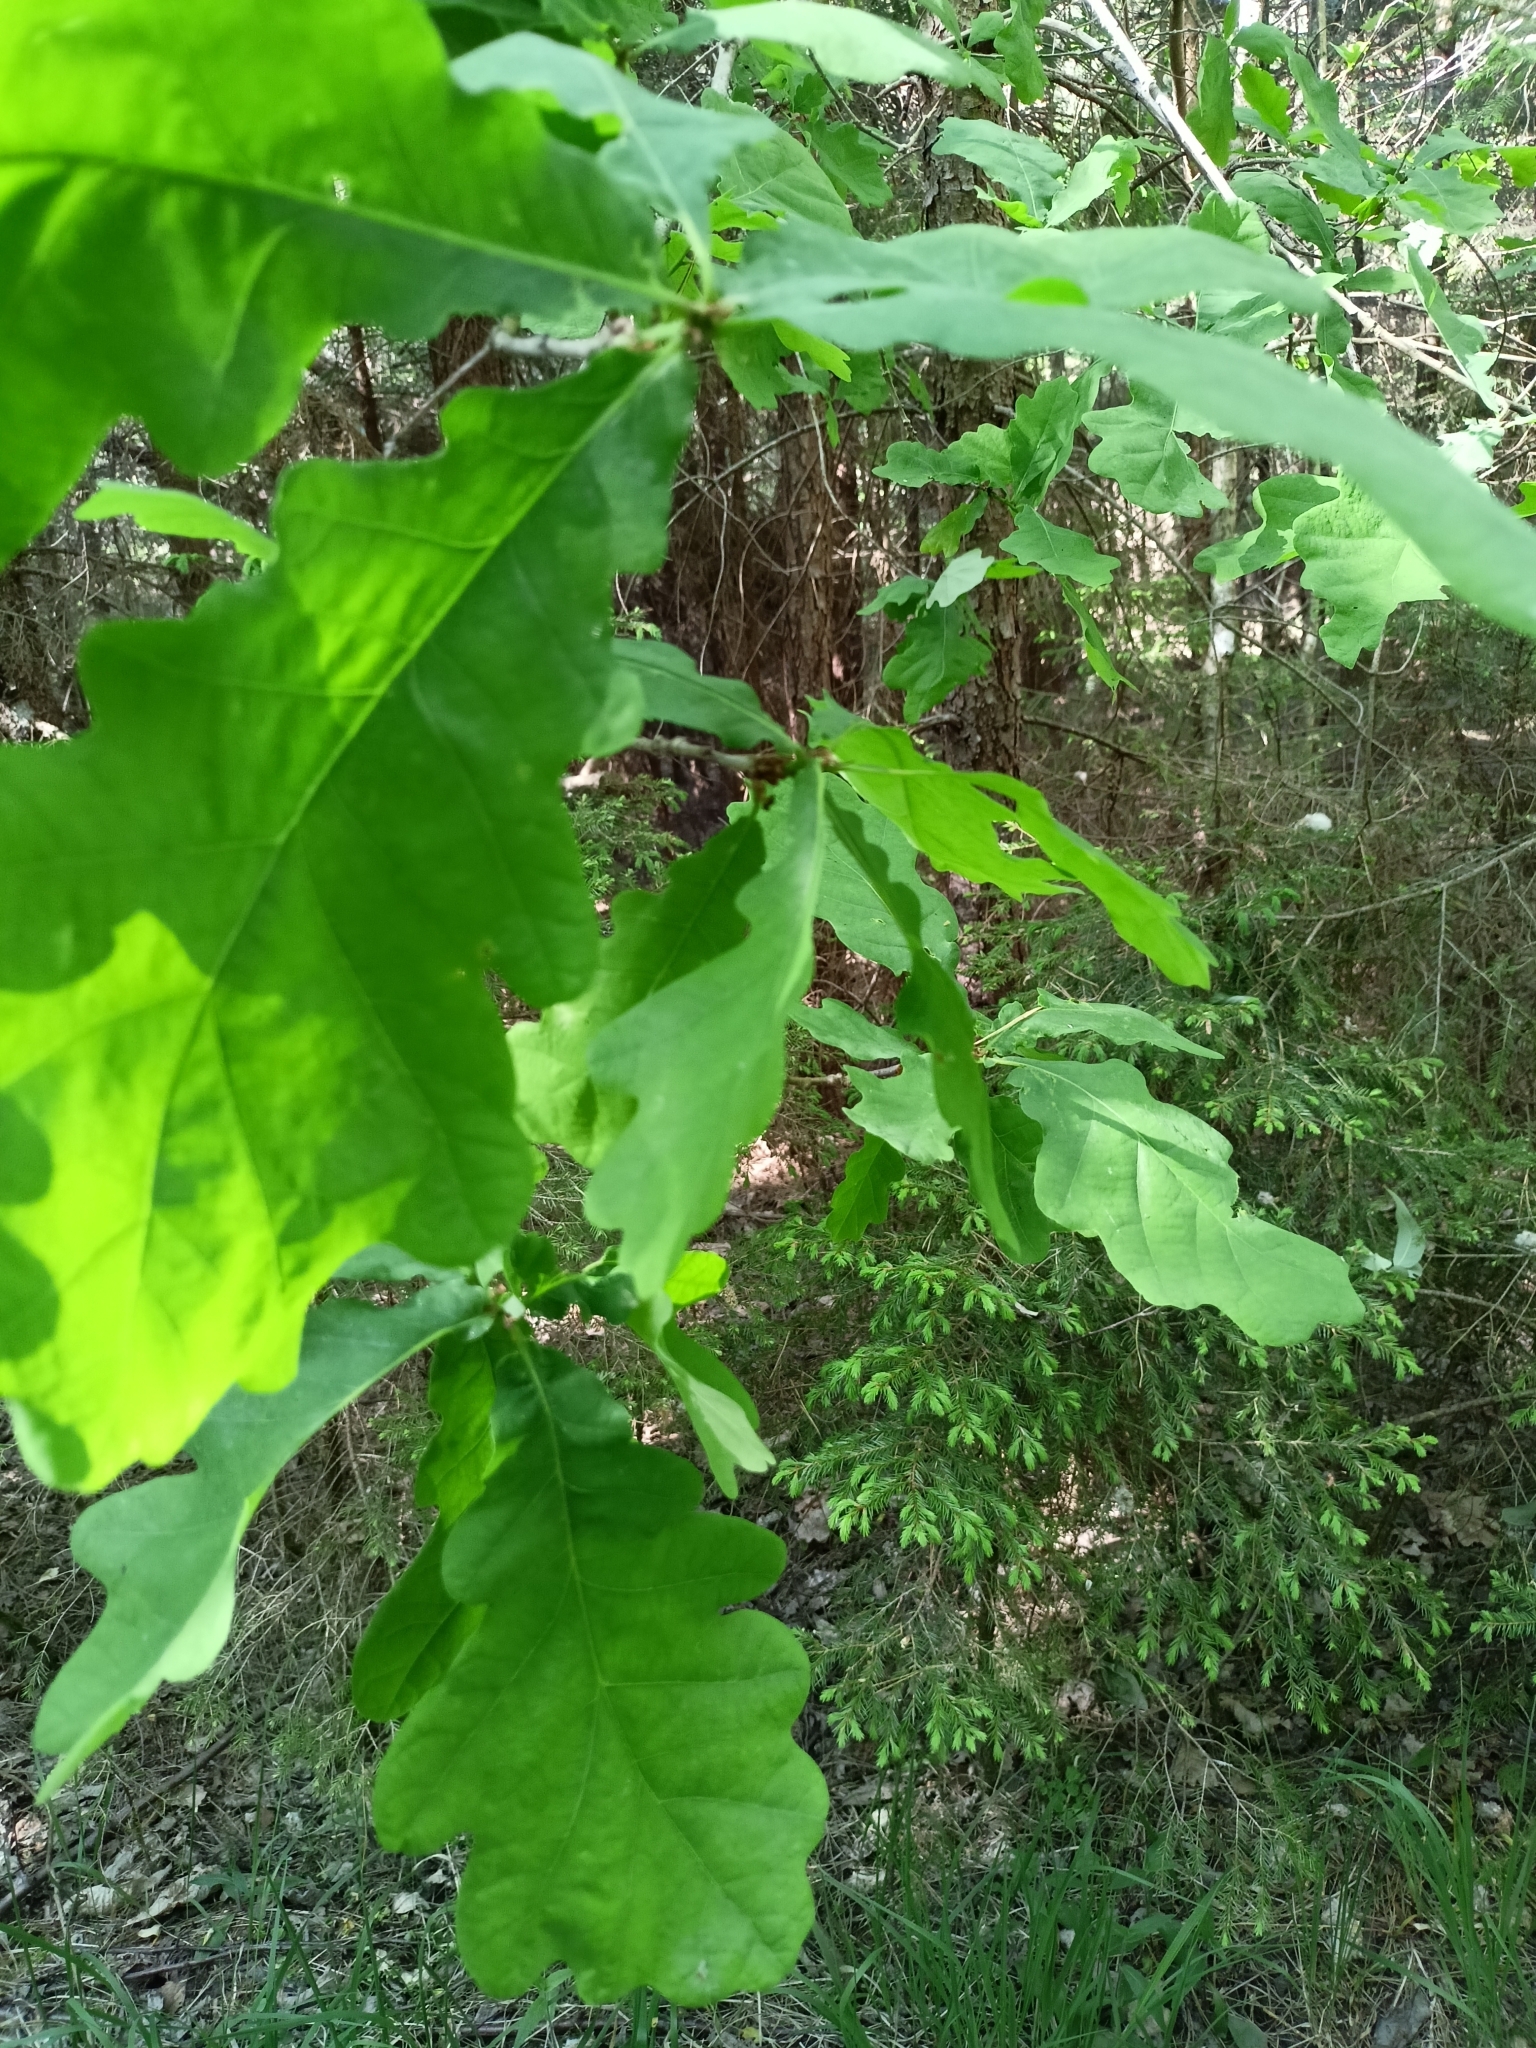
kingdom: Plantae
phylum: Tracheophyta
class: Magnoliopsida
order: Fagales
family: Fagaceae
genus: Quercus
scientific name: Quercus robur
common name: Pedunculate oak
